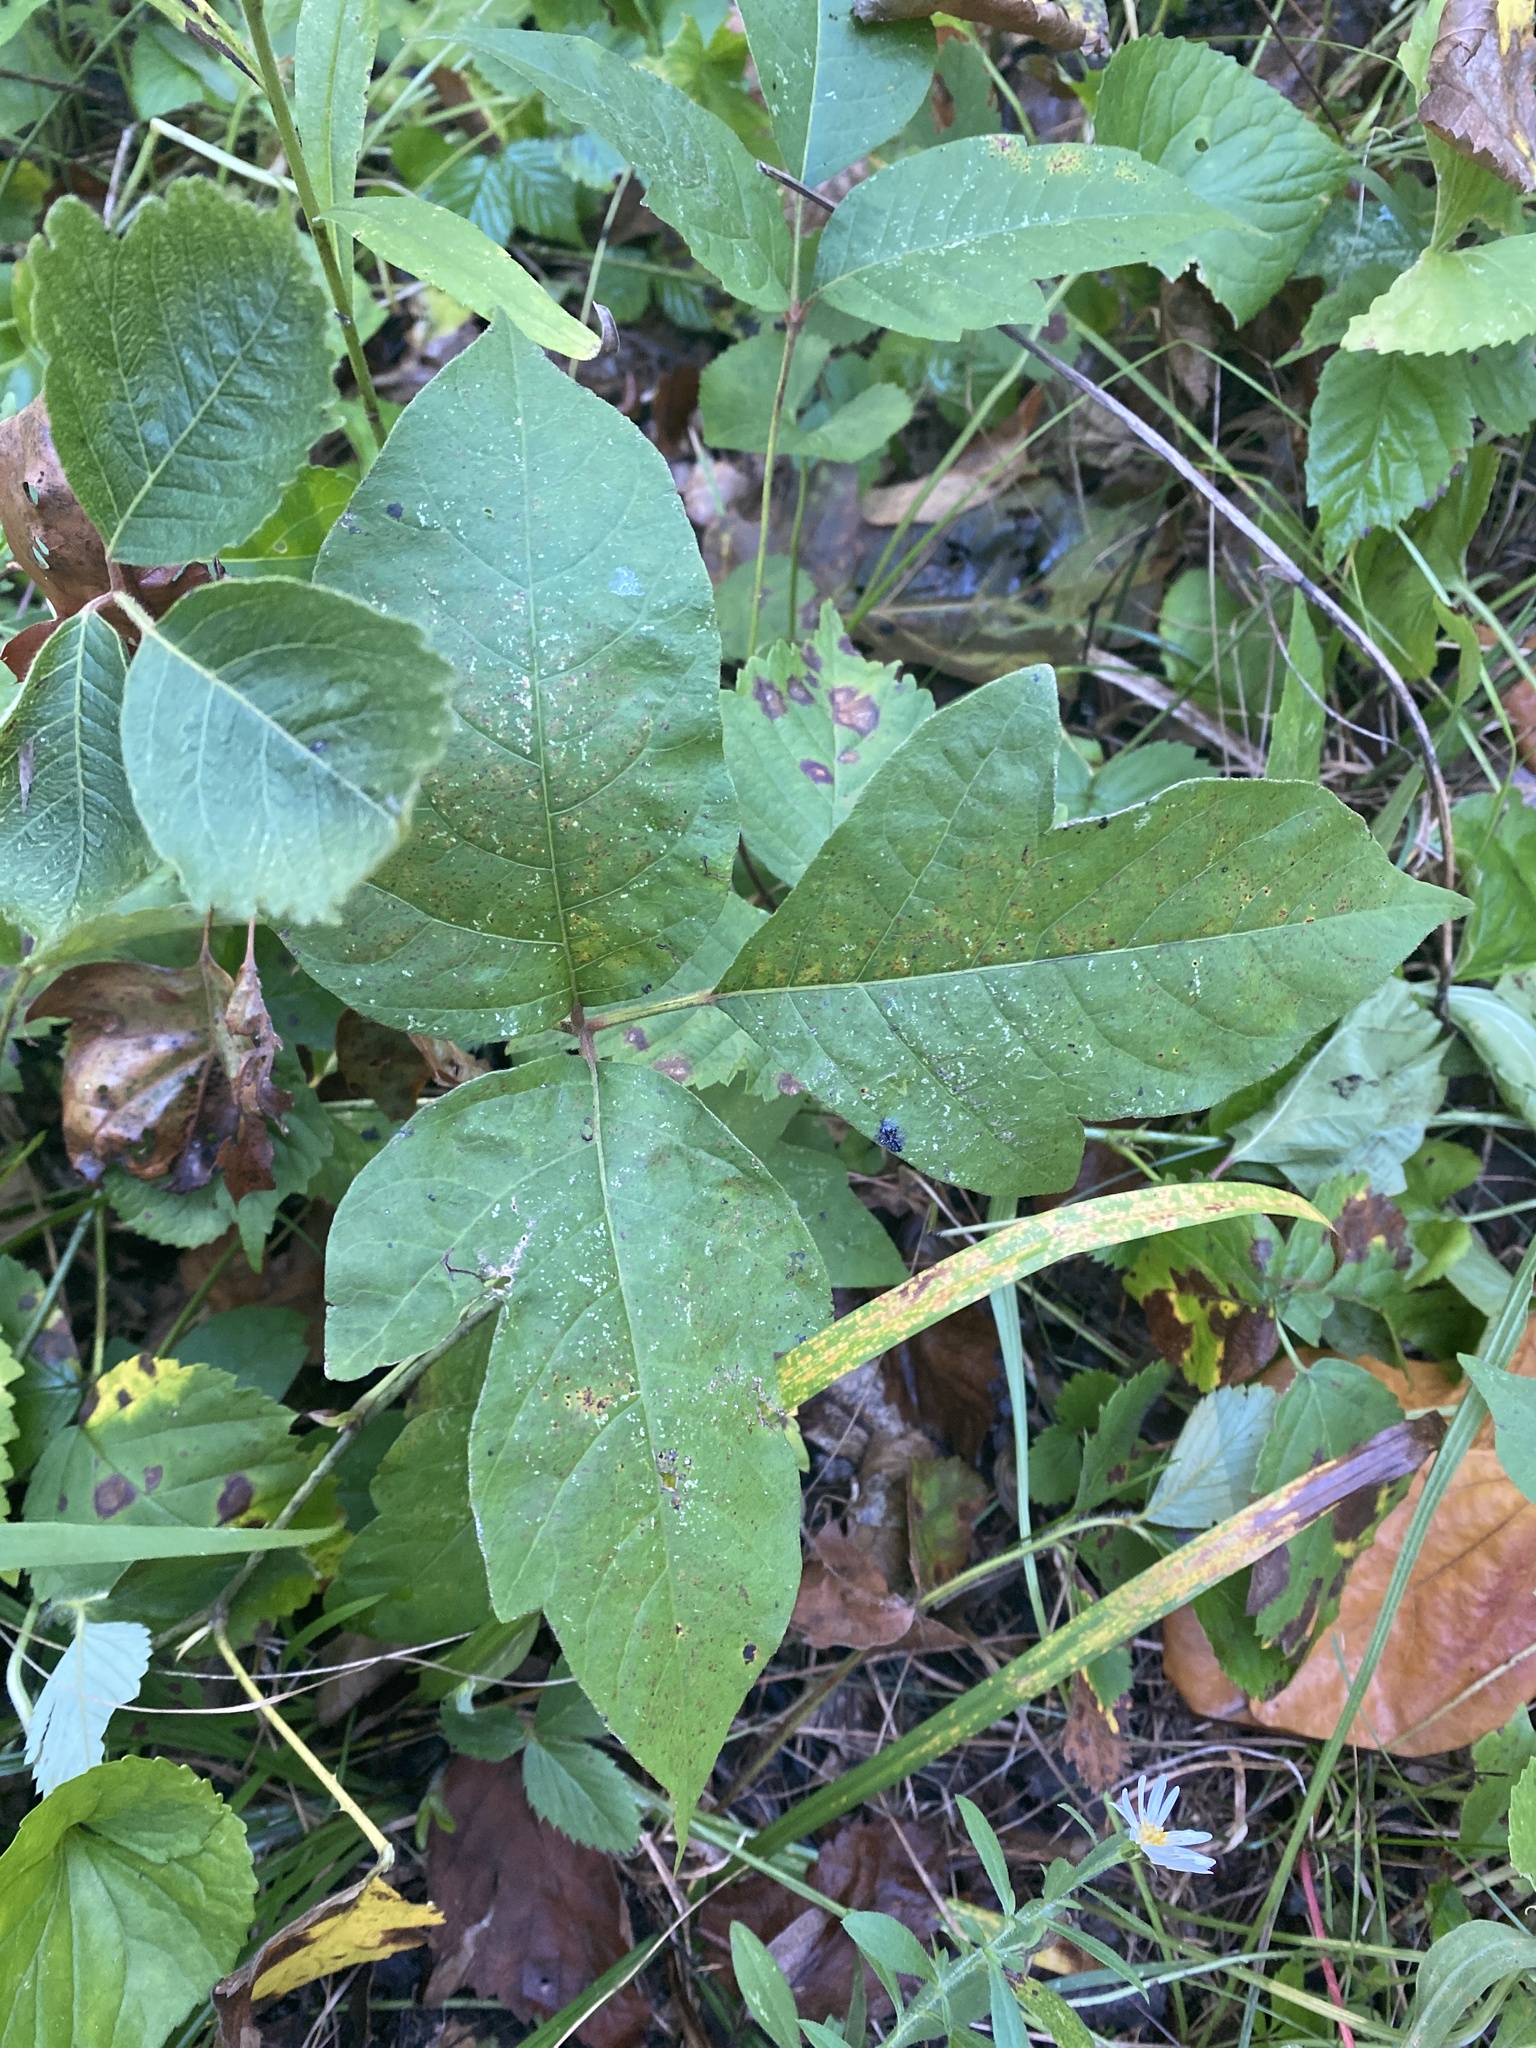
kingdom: Plantae
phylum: Tracheophyta
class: Magnoliopsida
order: Sapindales
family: Anacardiaceae
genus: Toxicodendron
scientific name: Toxicodendron radicans
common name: Poison ivy
